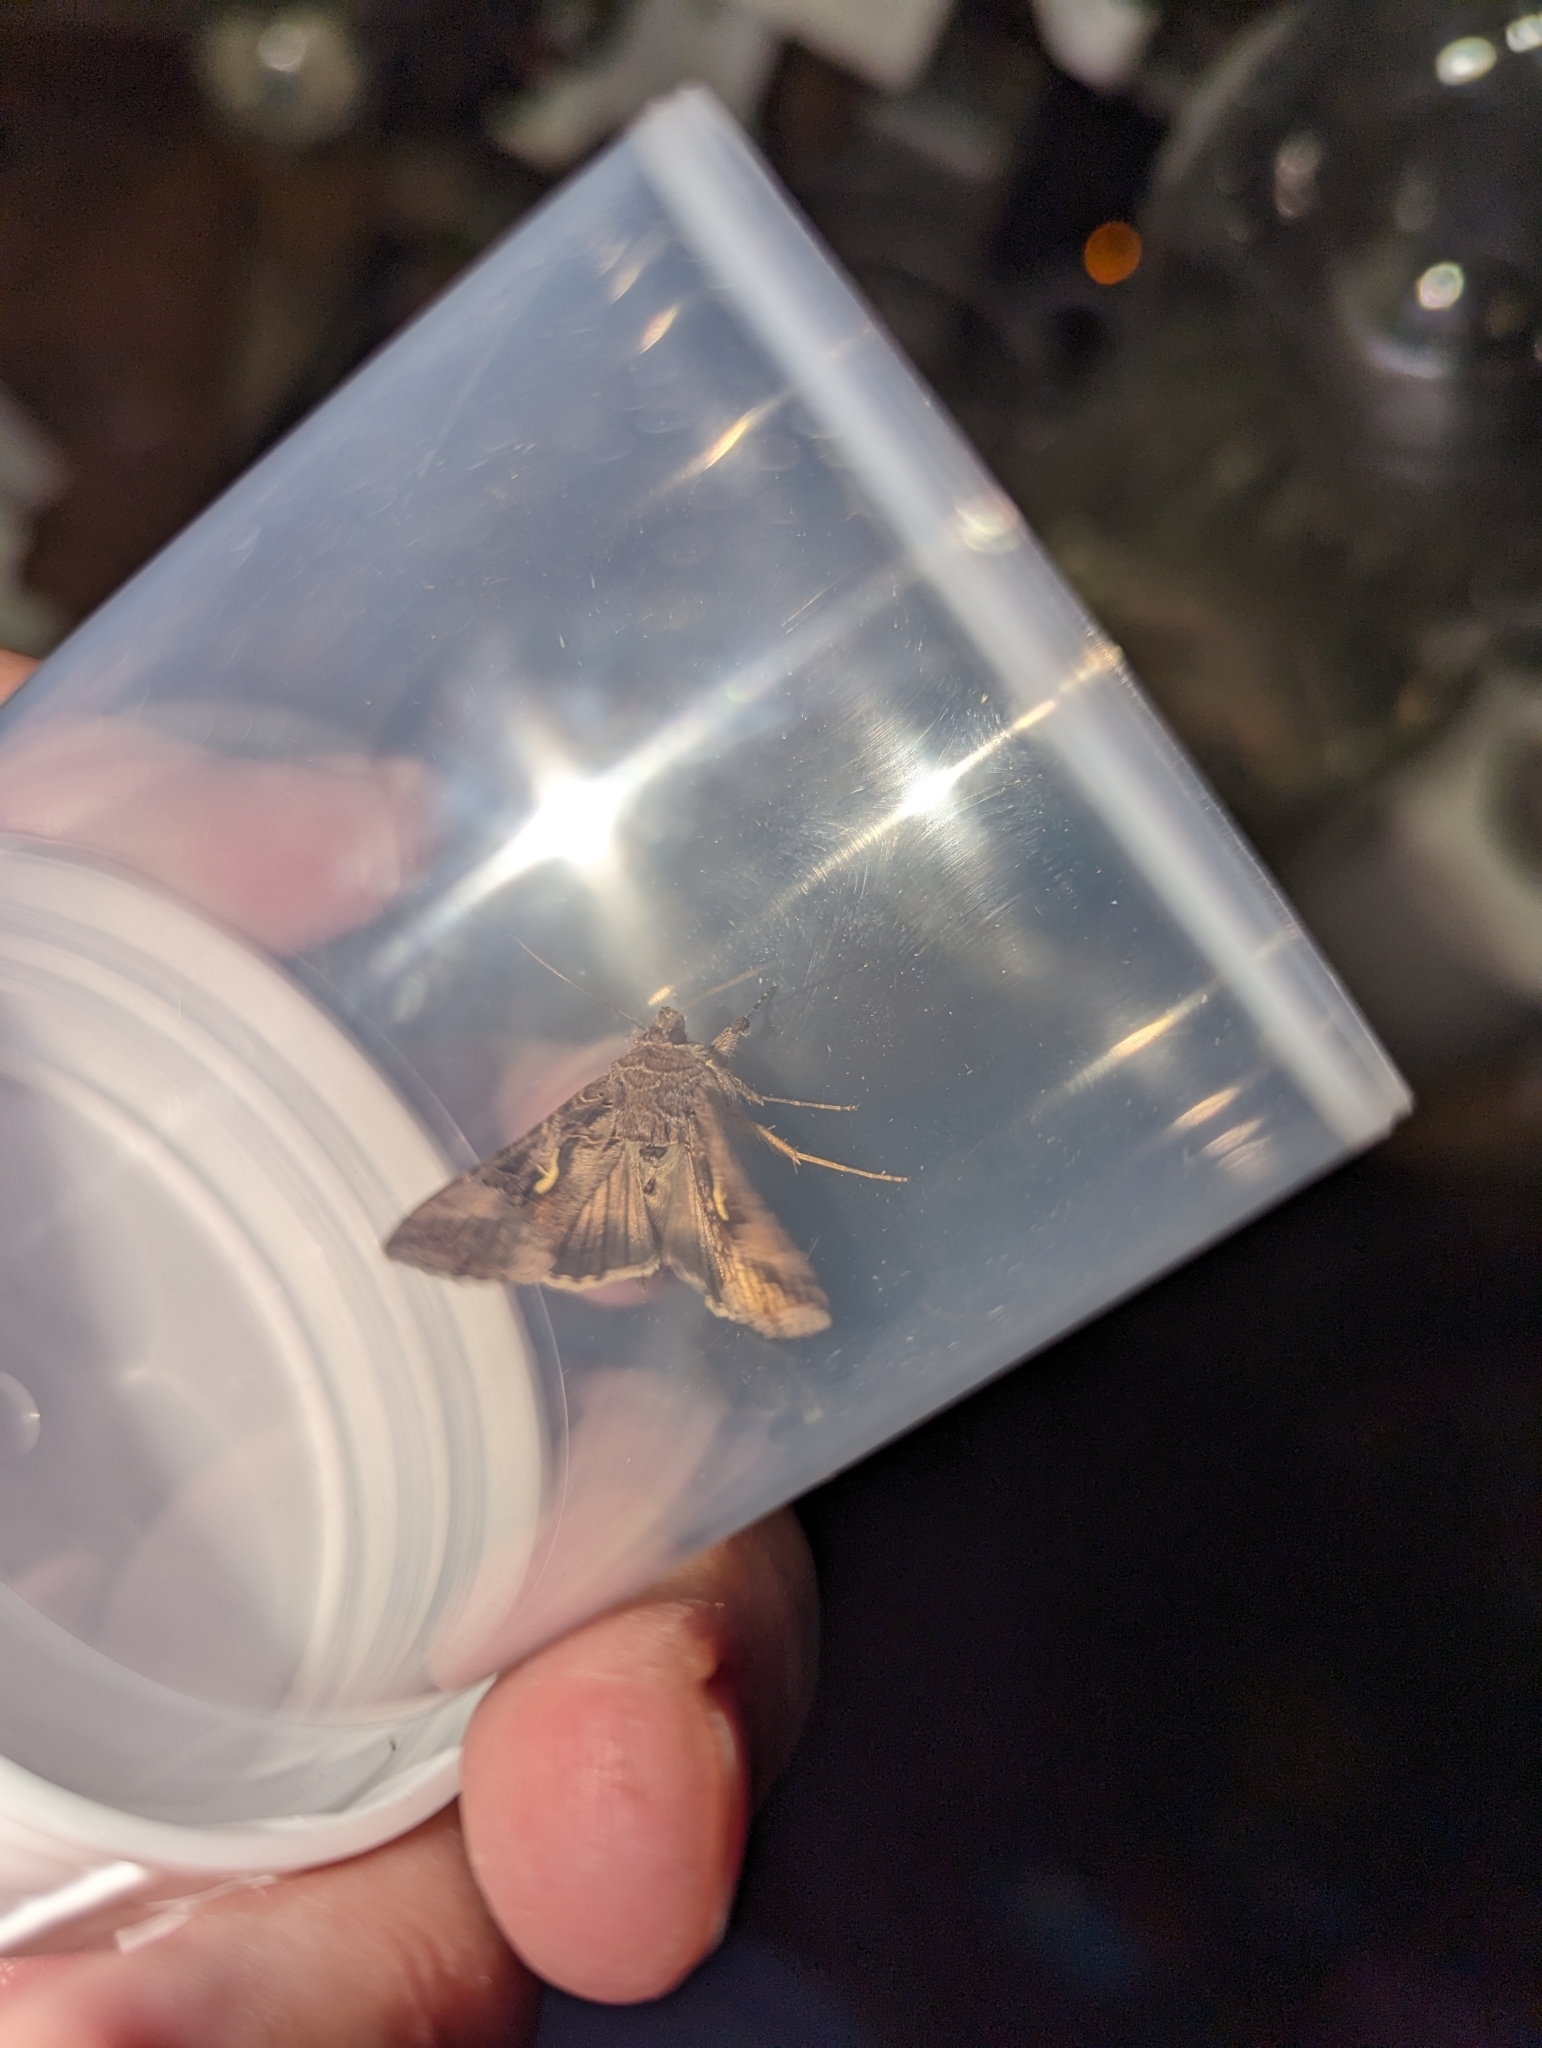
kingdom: Animalia
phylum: Arthropoda
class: Insecta
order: Lepidoptera
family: Noctuidae
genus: Autographa
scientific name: Autographa gamma
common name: Silver y
